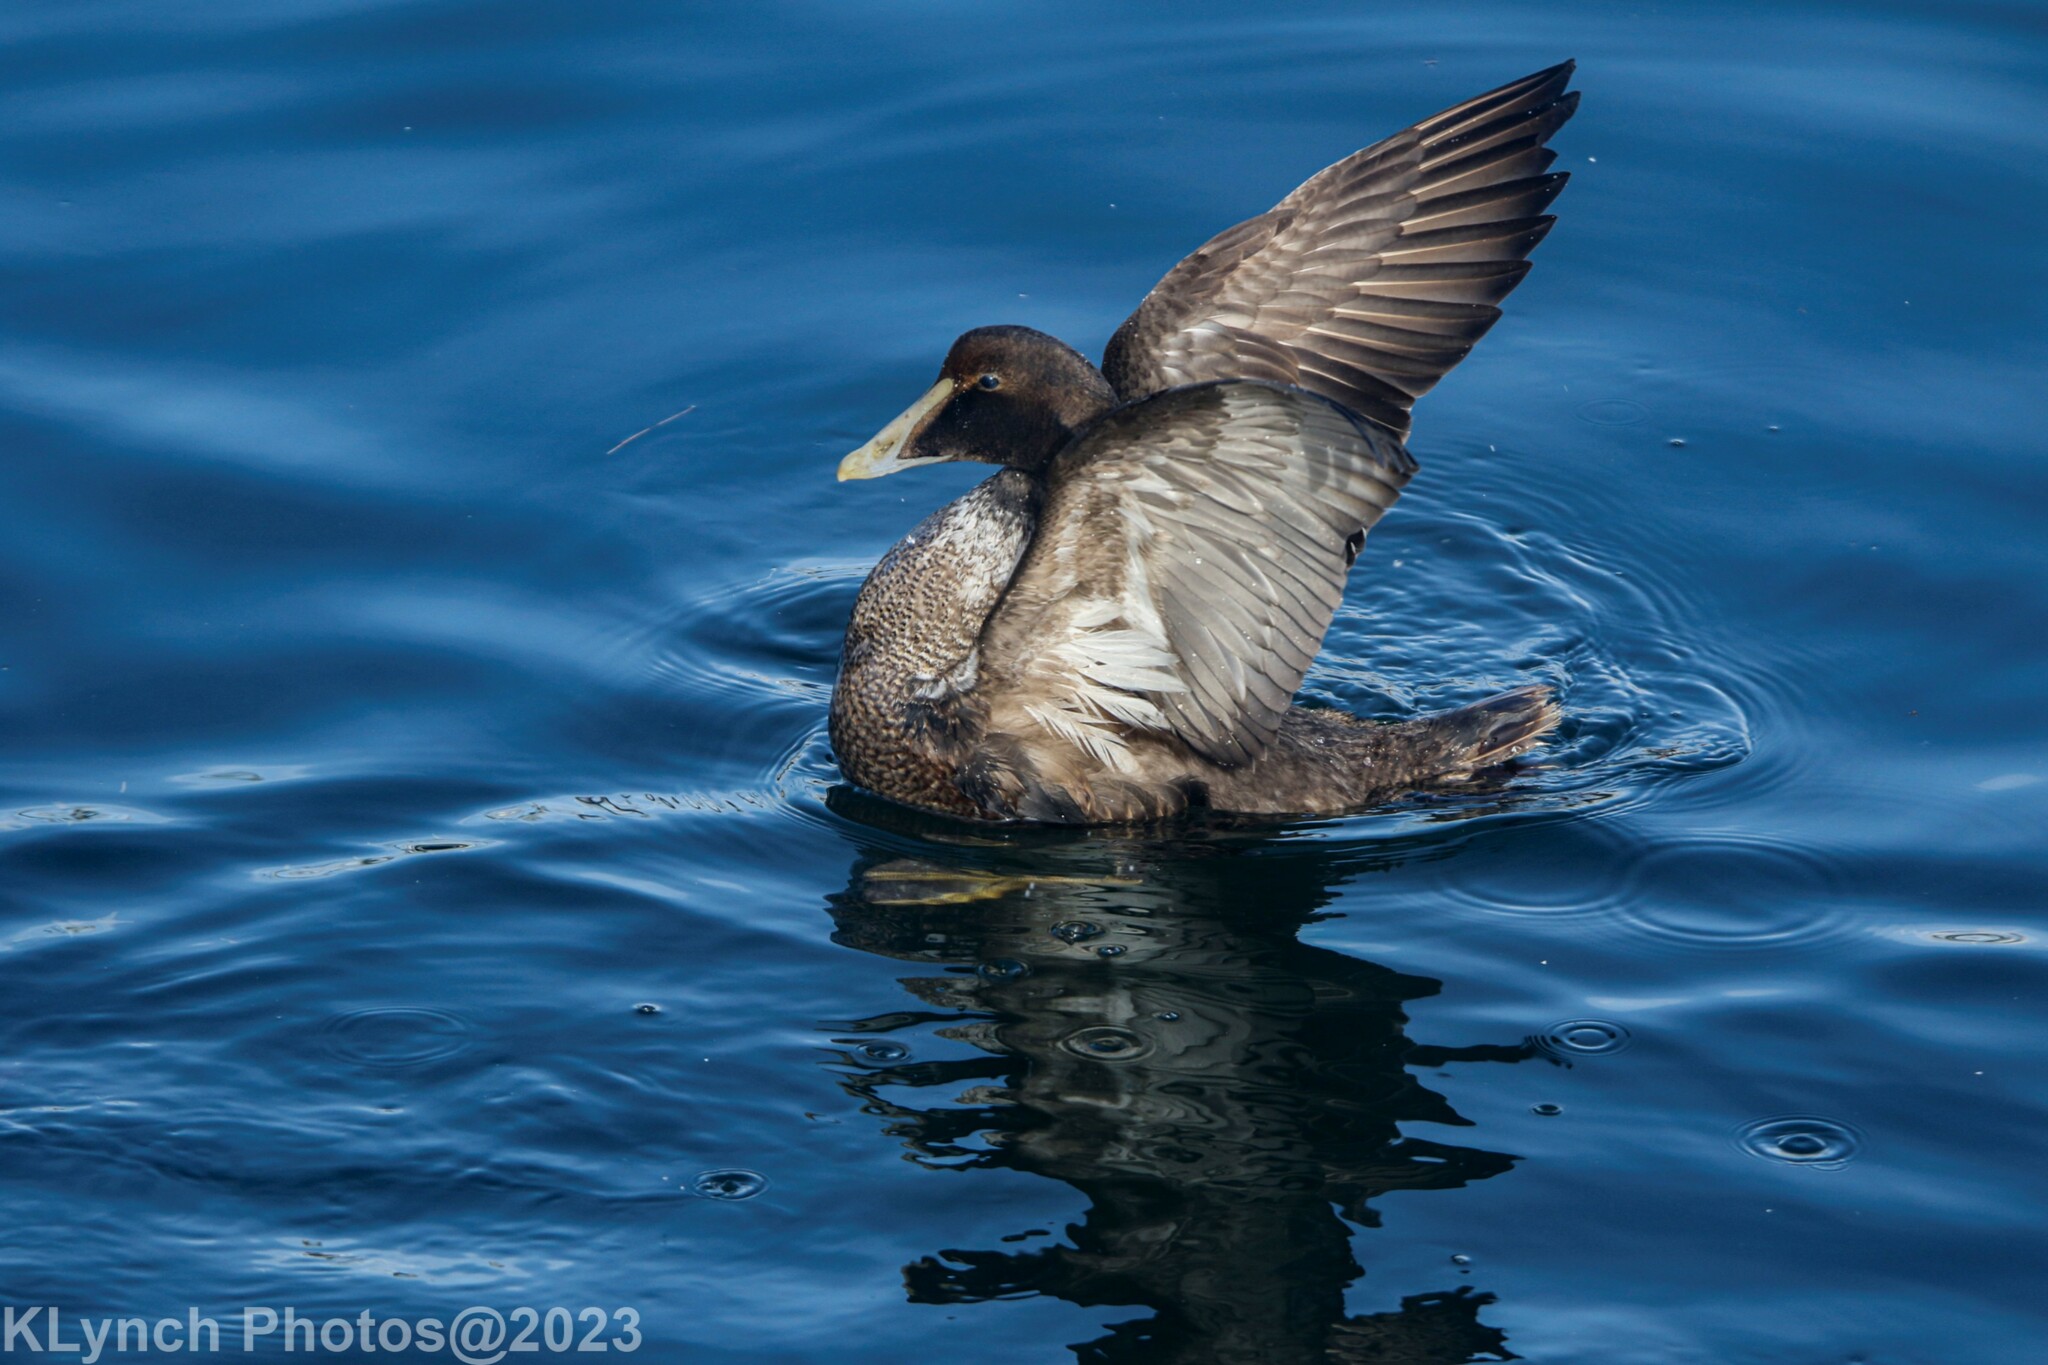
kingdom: Animalia
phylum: Chordata
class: Aves
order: Anseriformes
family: Anatidae
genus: Somateria
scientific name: Somateria mollissima
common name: Common eider
